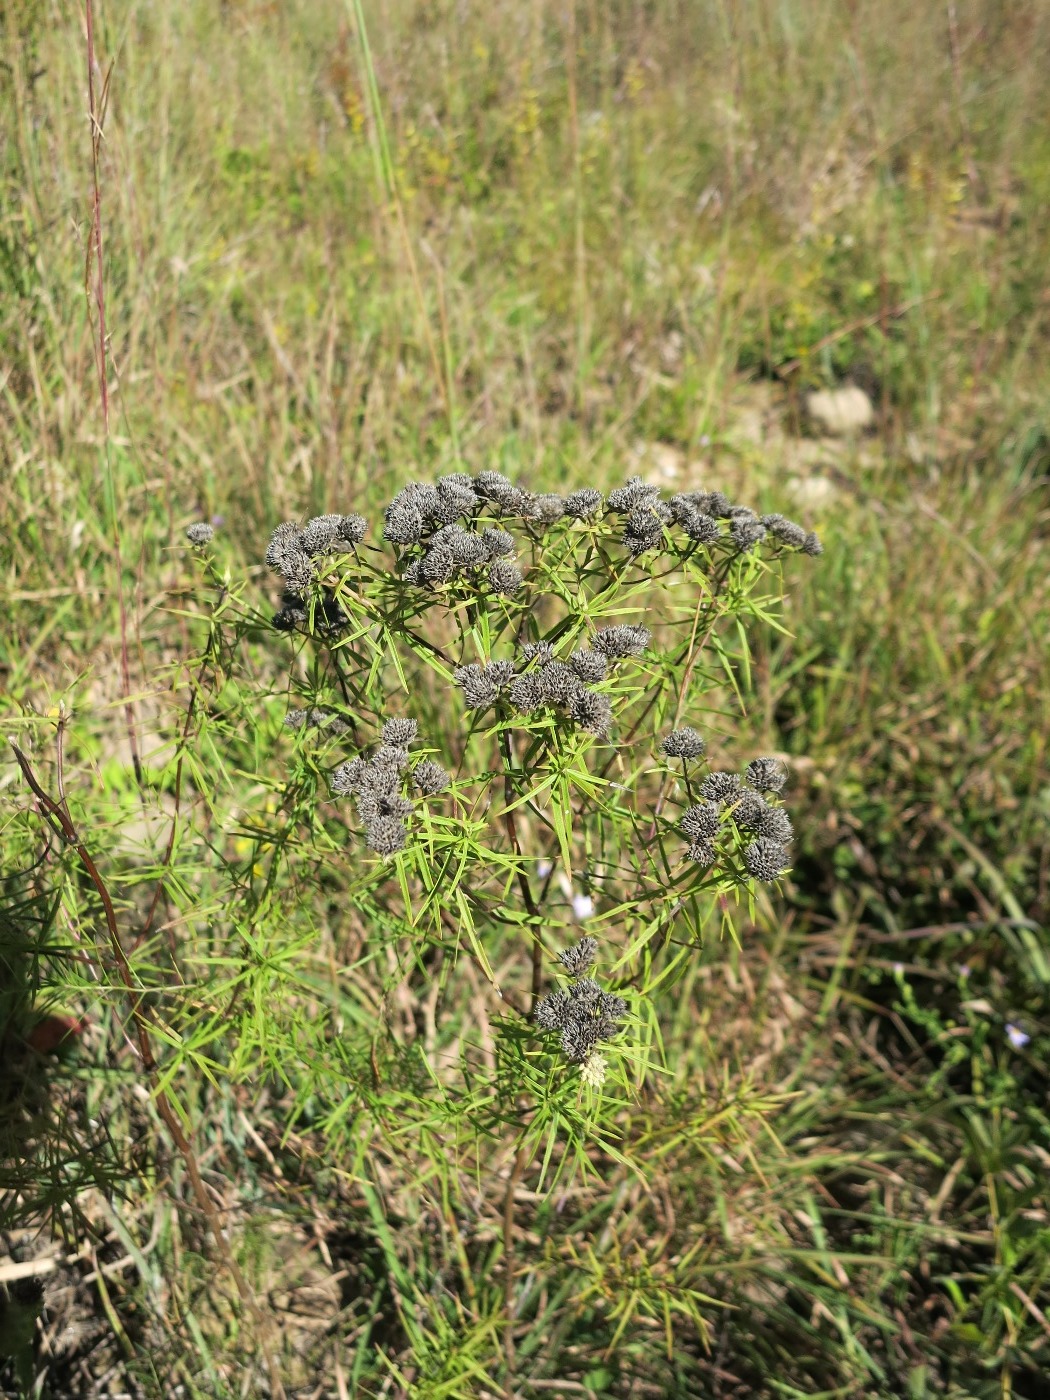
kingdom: Plantae
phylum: Tracheophyta
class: Magnoliopsida
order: Lamiales
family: Lamiaceae
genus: Pycnanthemum
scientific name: Pycnanthemum tenuifolium
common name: Narrow-leaf mountain-mint
